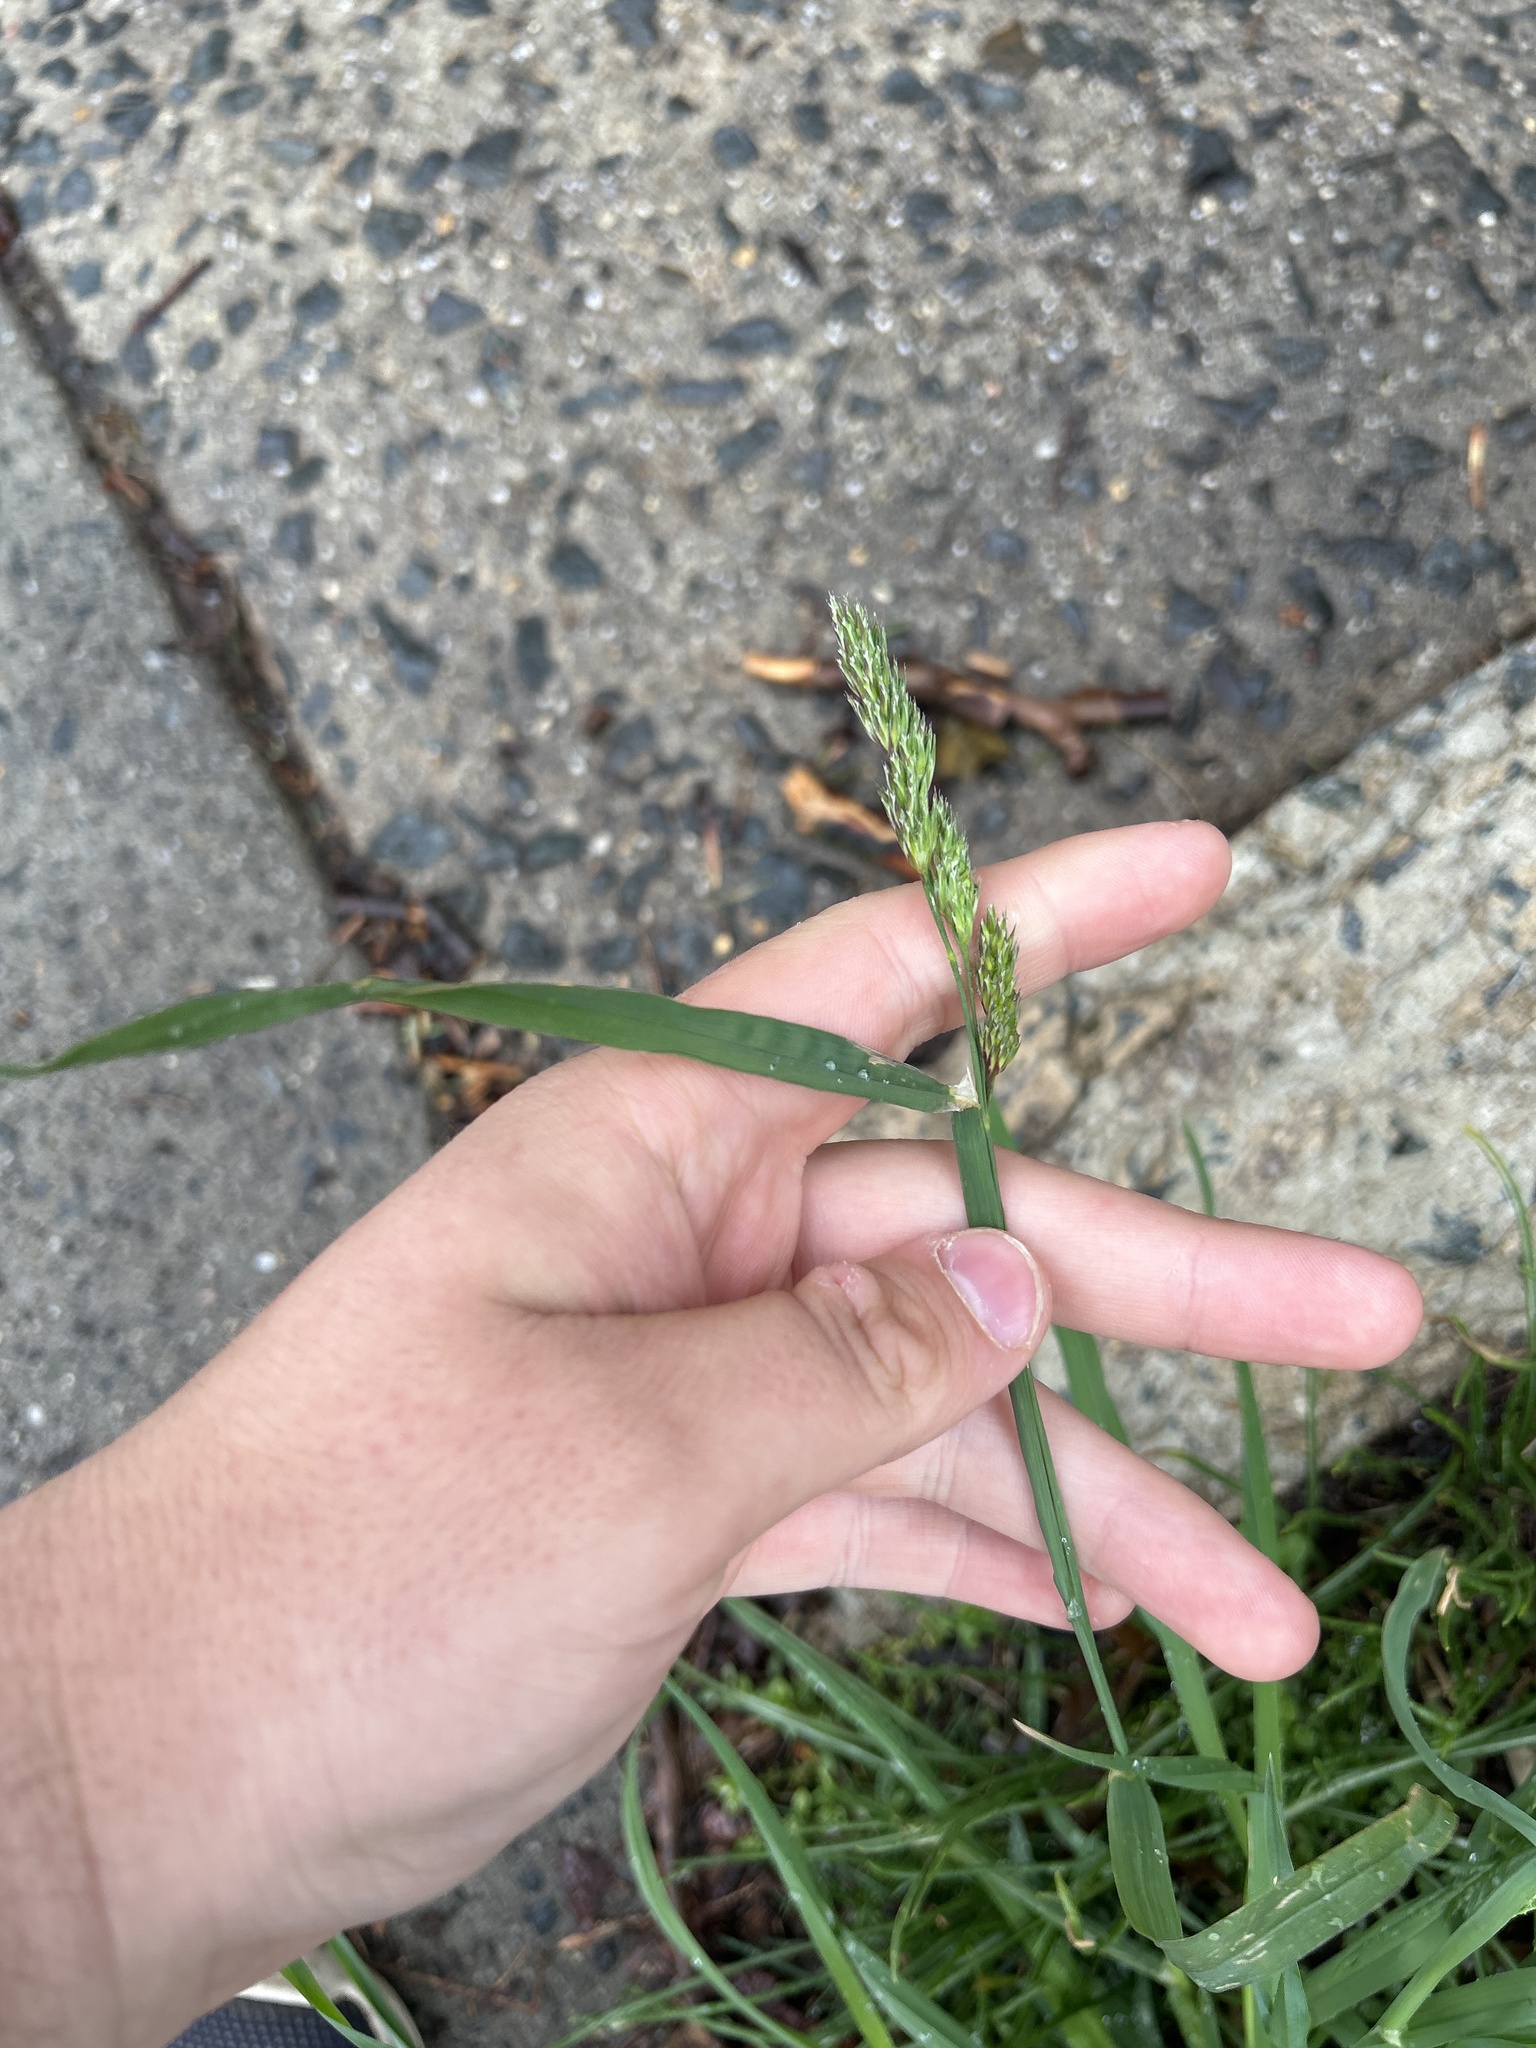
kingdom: Plantae
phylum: Tracheophyta
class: Liliopsida
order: Poales
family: Poaceae
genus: Dactylis
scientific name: Dactylis glomerata
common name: Orchardgrass
